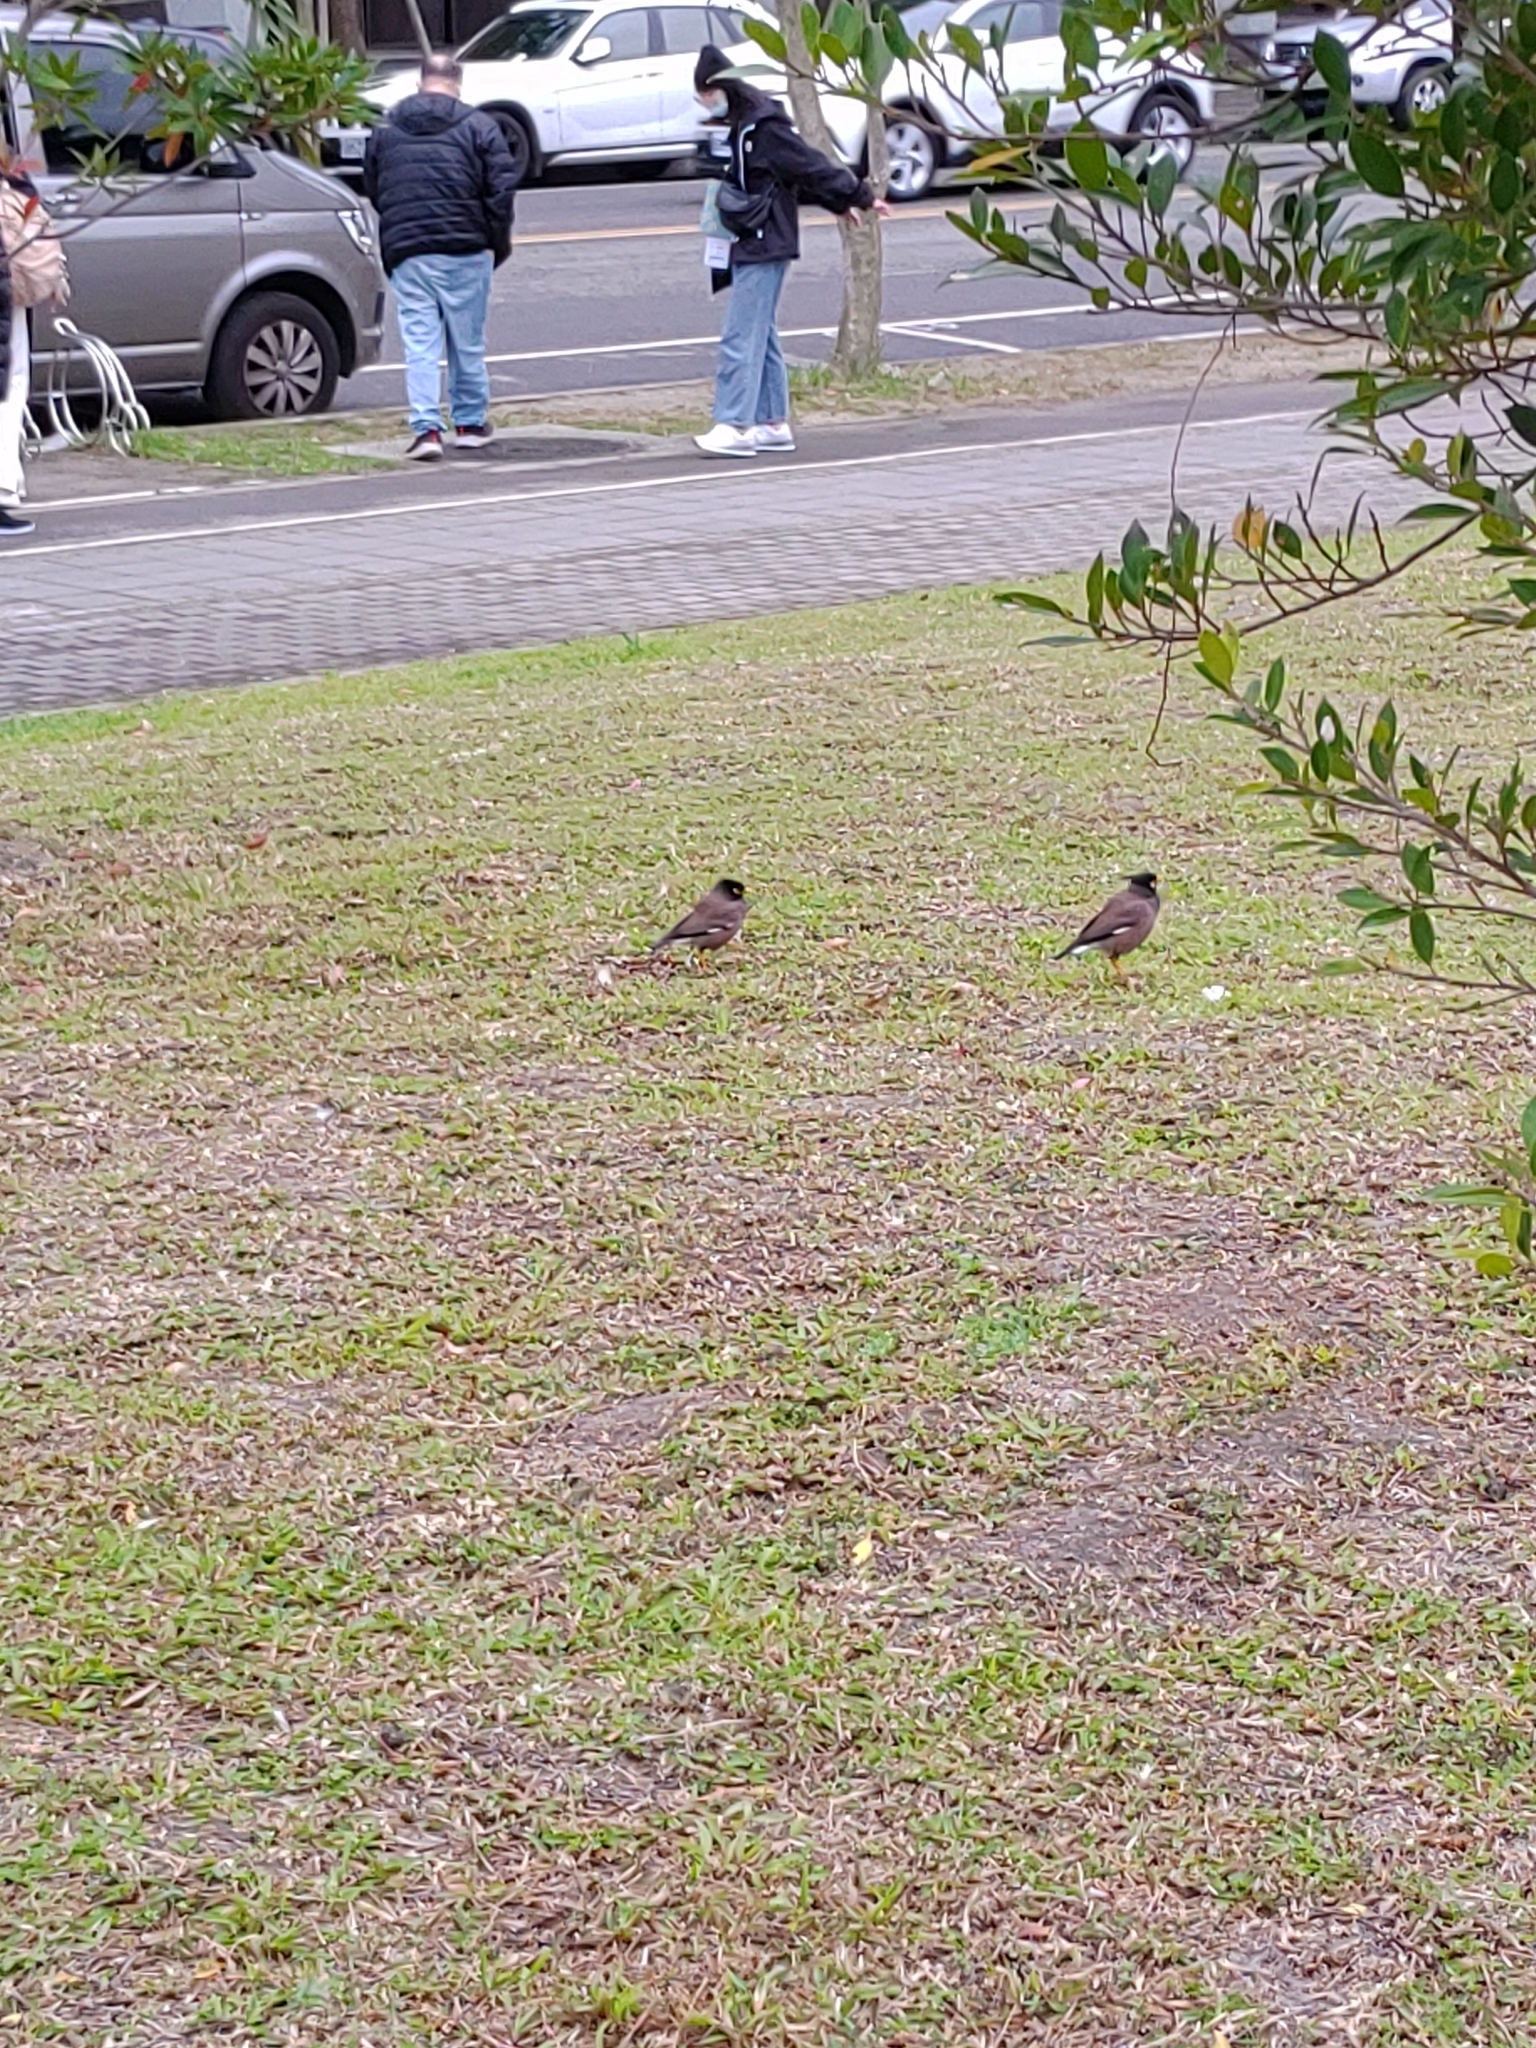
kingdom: Animalia
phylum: Chordata
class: Aves
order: Passeriformes
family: Sturnidae
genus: Acridotheres
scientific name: Acridotheres tristis
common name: Common myna
